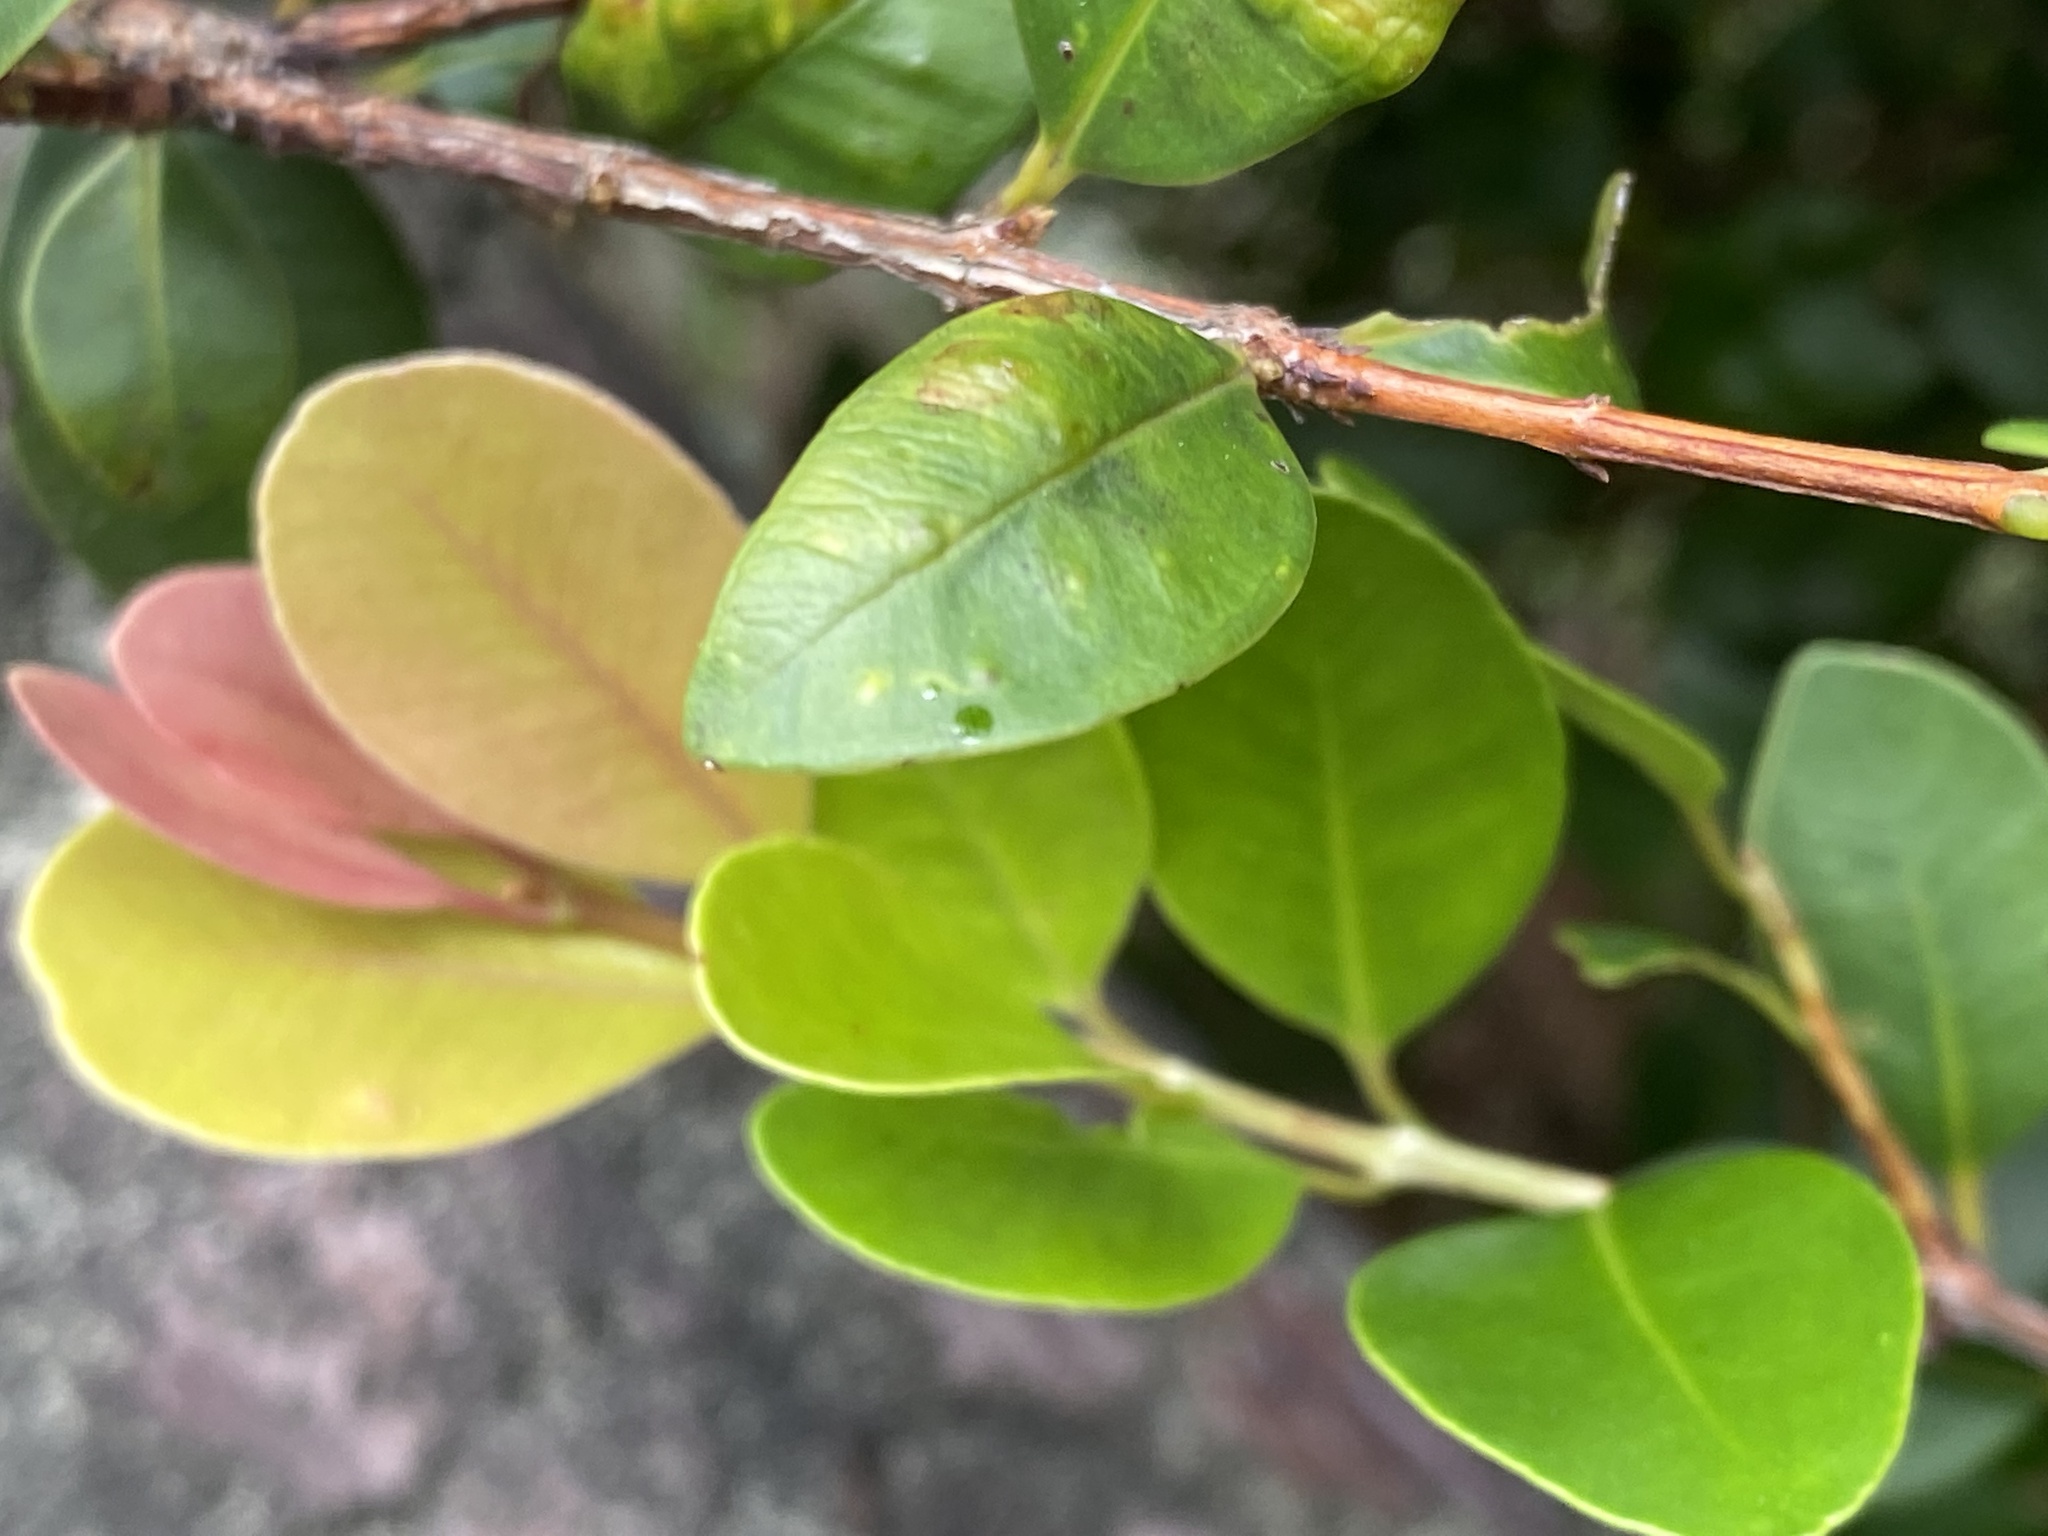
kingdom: Plantae
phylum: Tracheophyta
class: Magnoliopsida
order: Myrtales
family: Myrtaceae
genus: Syzygium
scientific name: Syzygium elliptifolium
